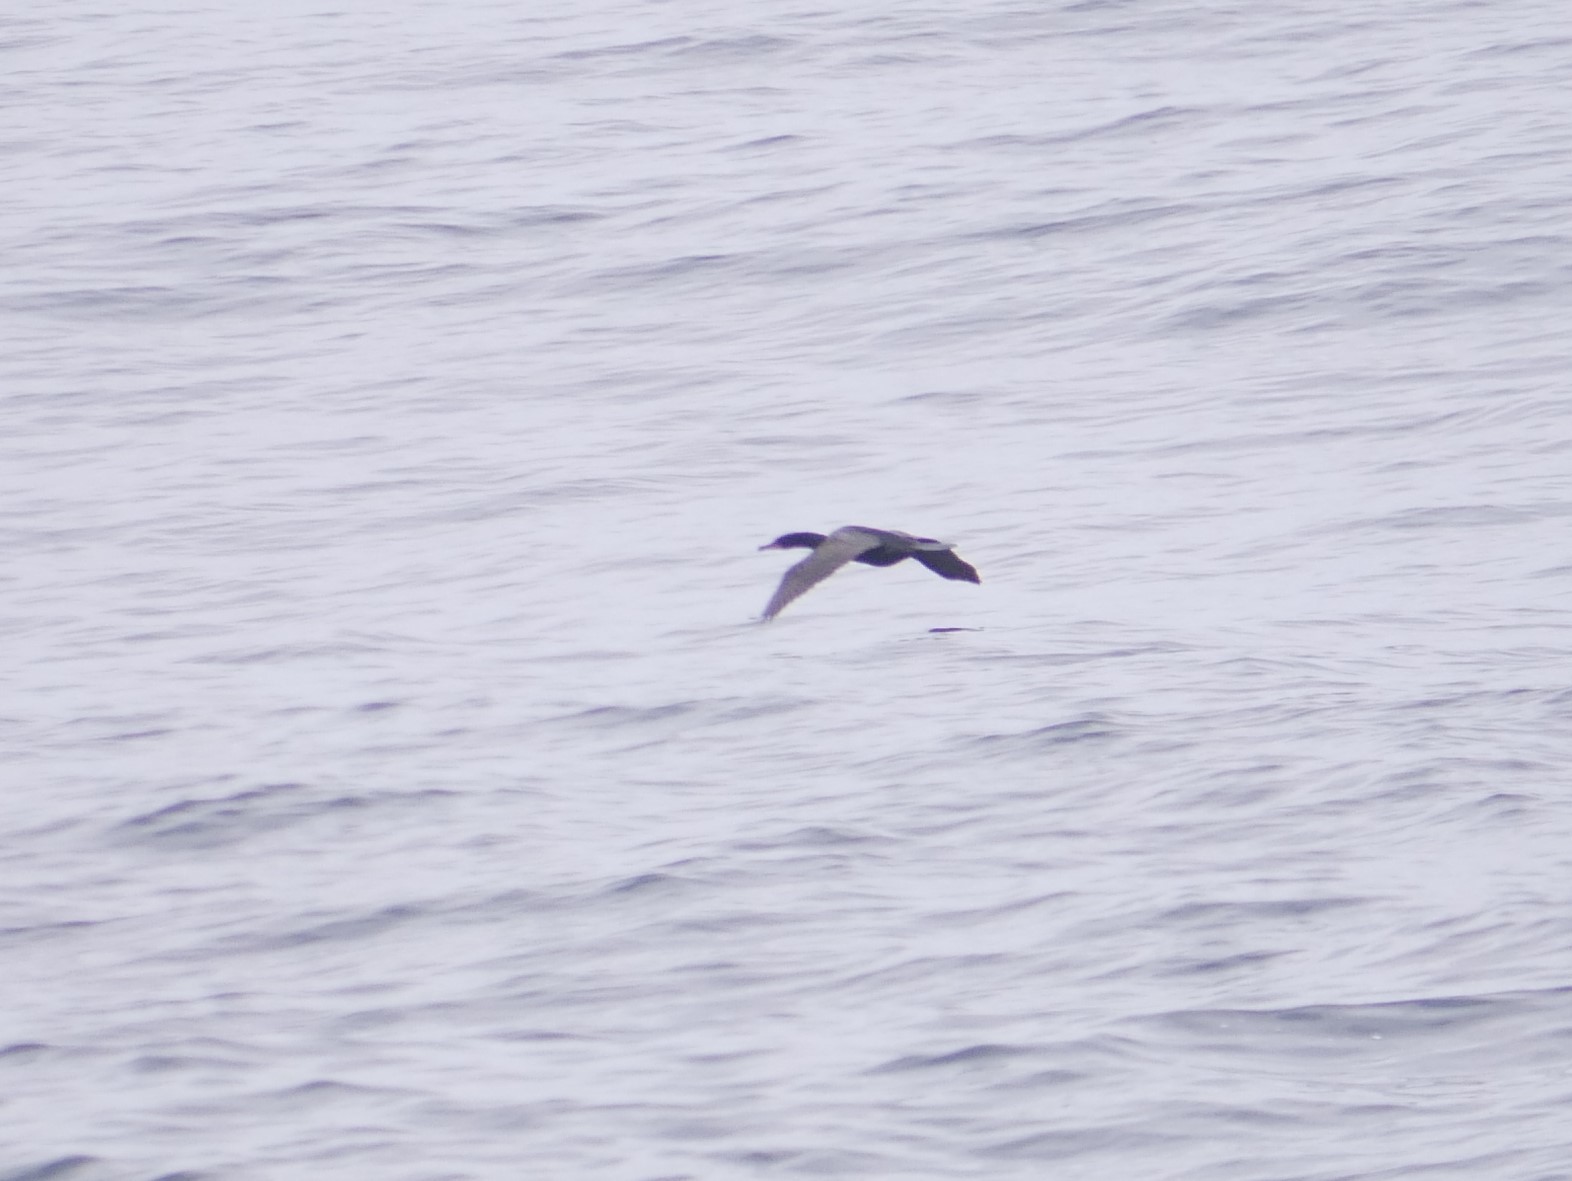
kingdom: Animalia
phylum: Chordata
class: Aves
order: Suliformes
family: Phalacrocoracidae
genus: Phalacrocorax
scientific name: Phalacrocorax auritus
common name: Double-crested cormorant
